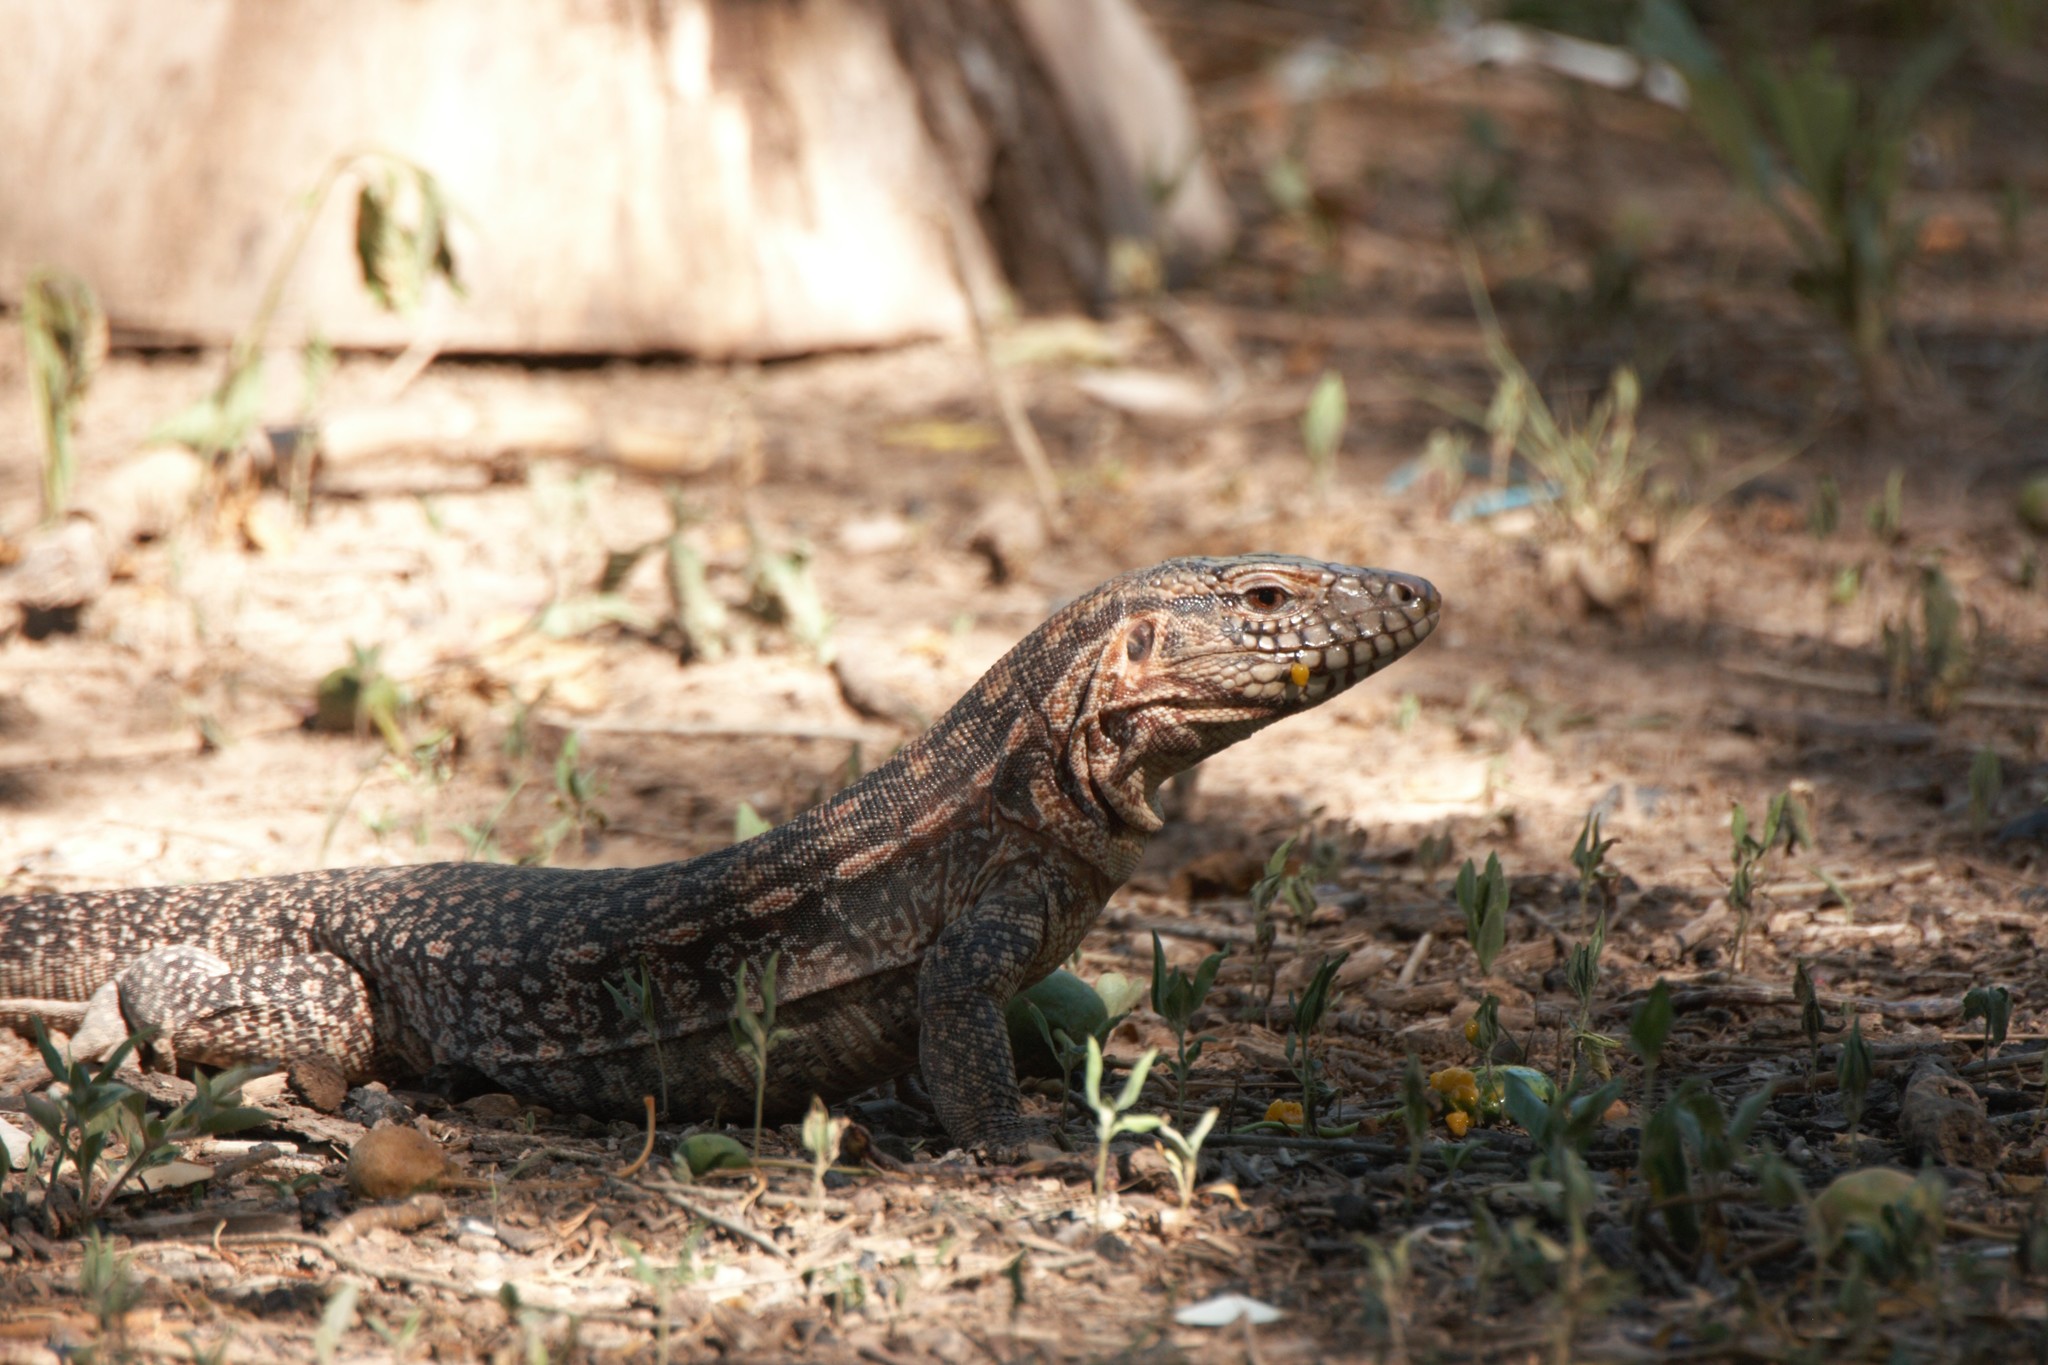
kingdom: Animalia
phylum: Chordata
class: Squamata
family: Teiidae
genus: Salvator
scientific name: Salvator rufescens
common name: Red tegu
